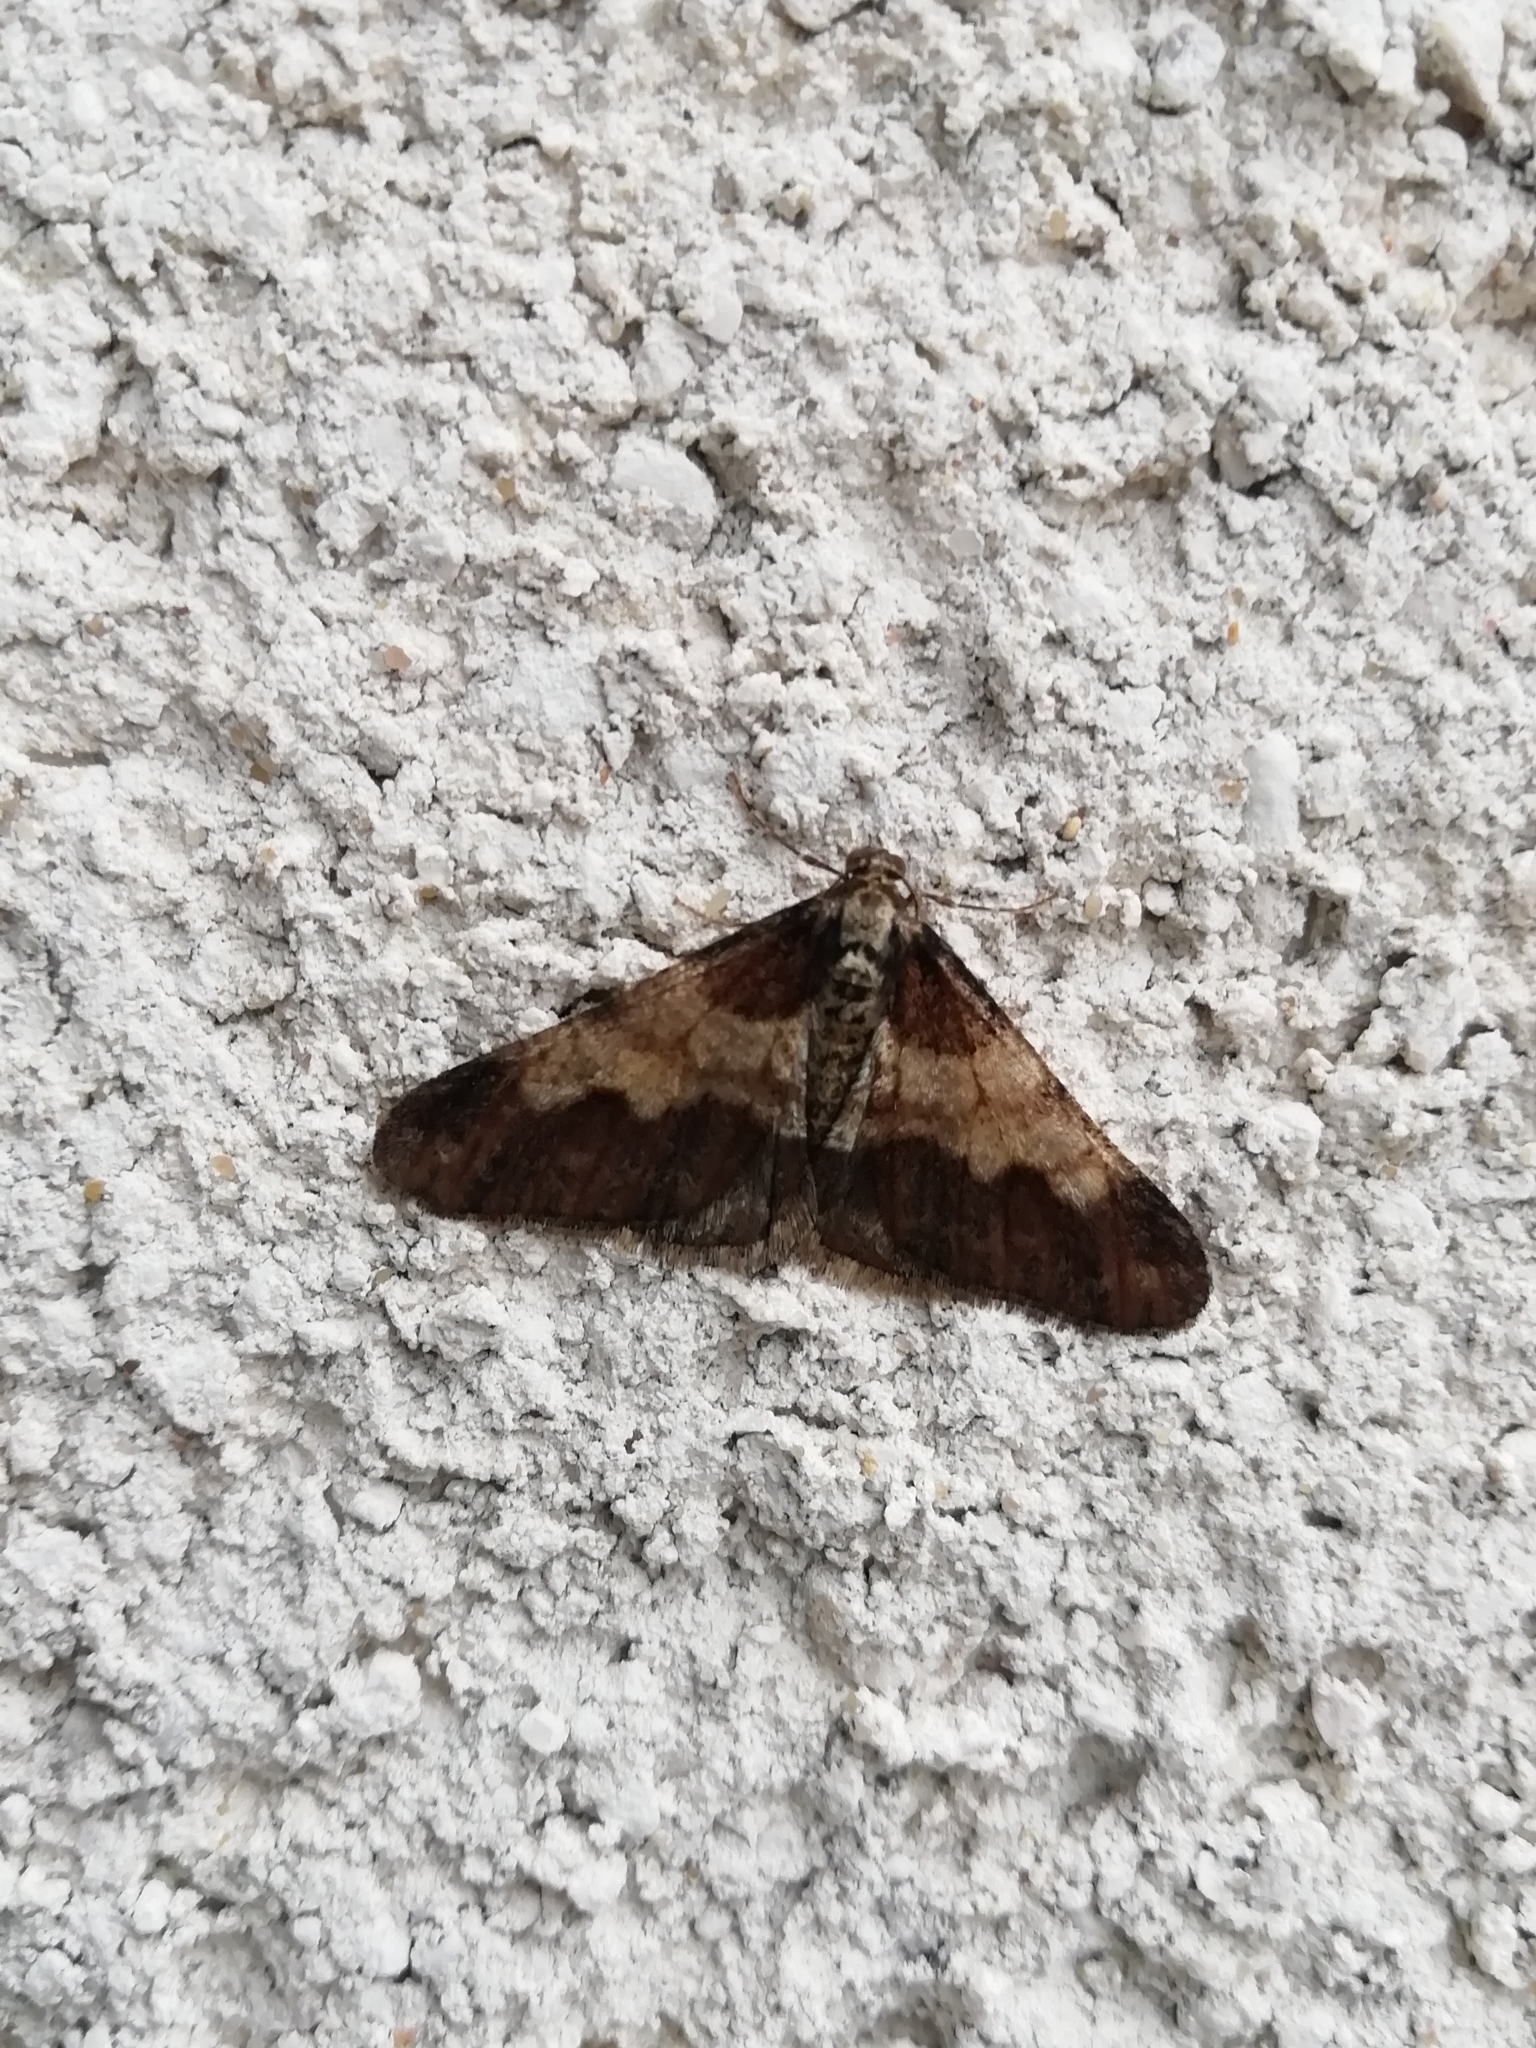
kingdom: Animalia
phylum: Arthropoda
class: Insecta
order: Lepidoptera
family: Geometridae
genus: Agriopis
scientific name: Agriopis leucophaearia
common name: Spring usher
